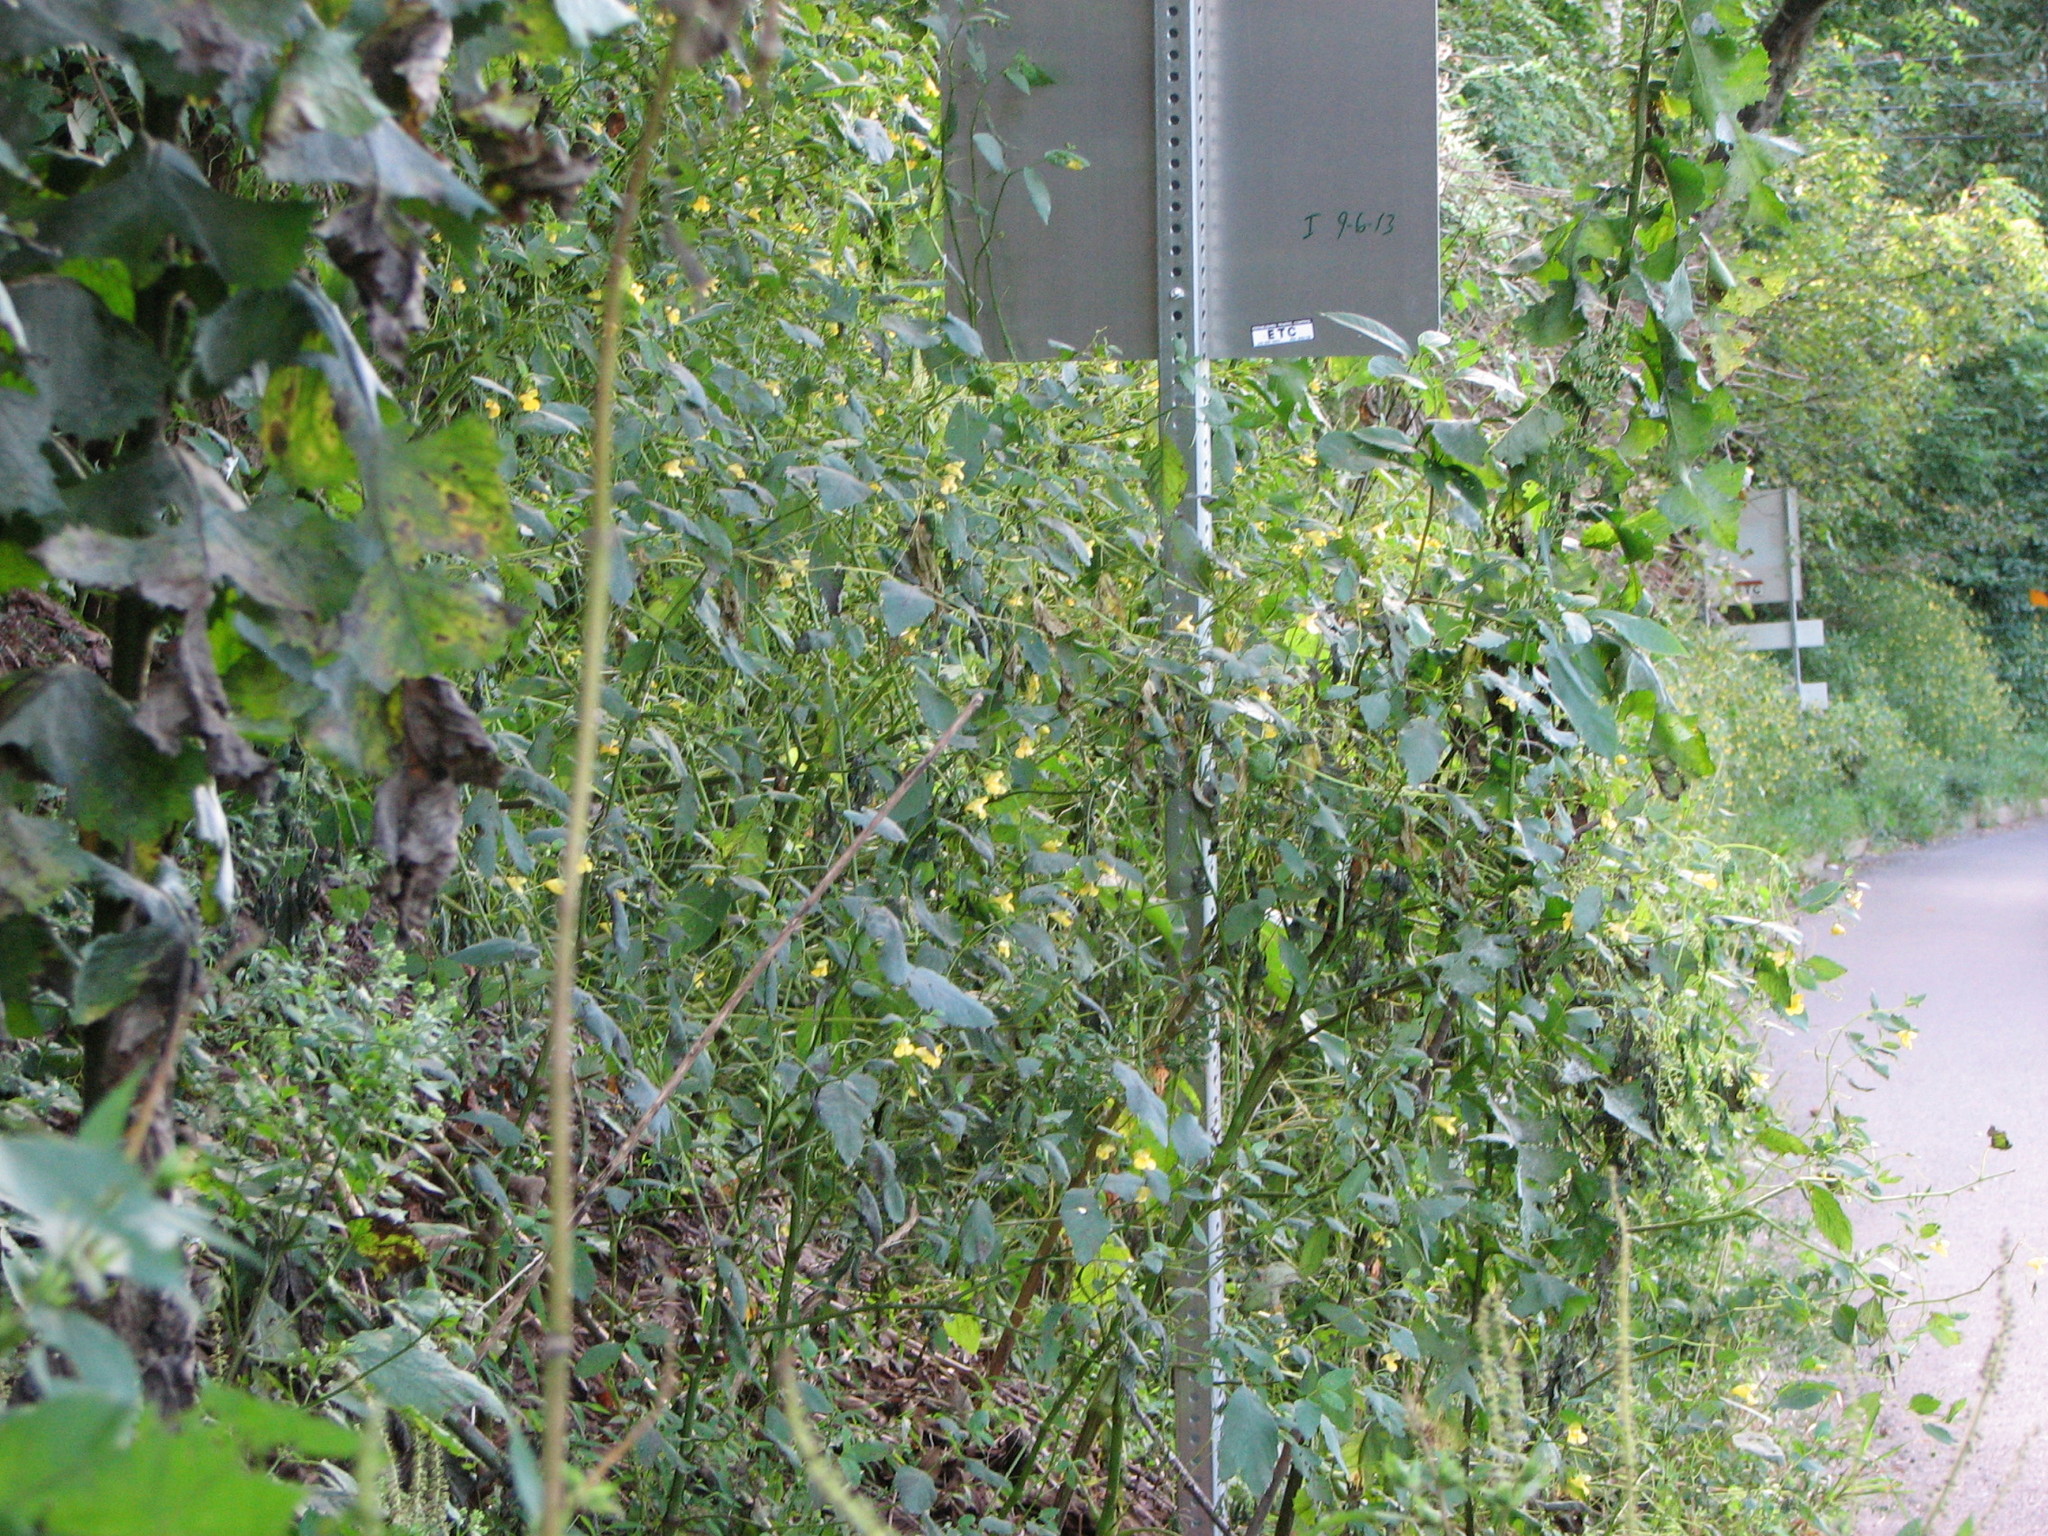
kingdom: Plantae
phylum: Tracheophyta
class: Magnoliopsida
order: Ericales
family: Balsaminaceae
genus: Impatiens
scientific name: Impatiens pallida
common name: Pale snapweed
